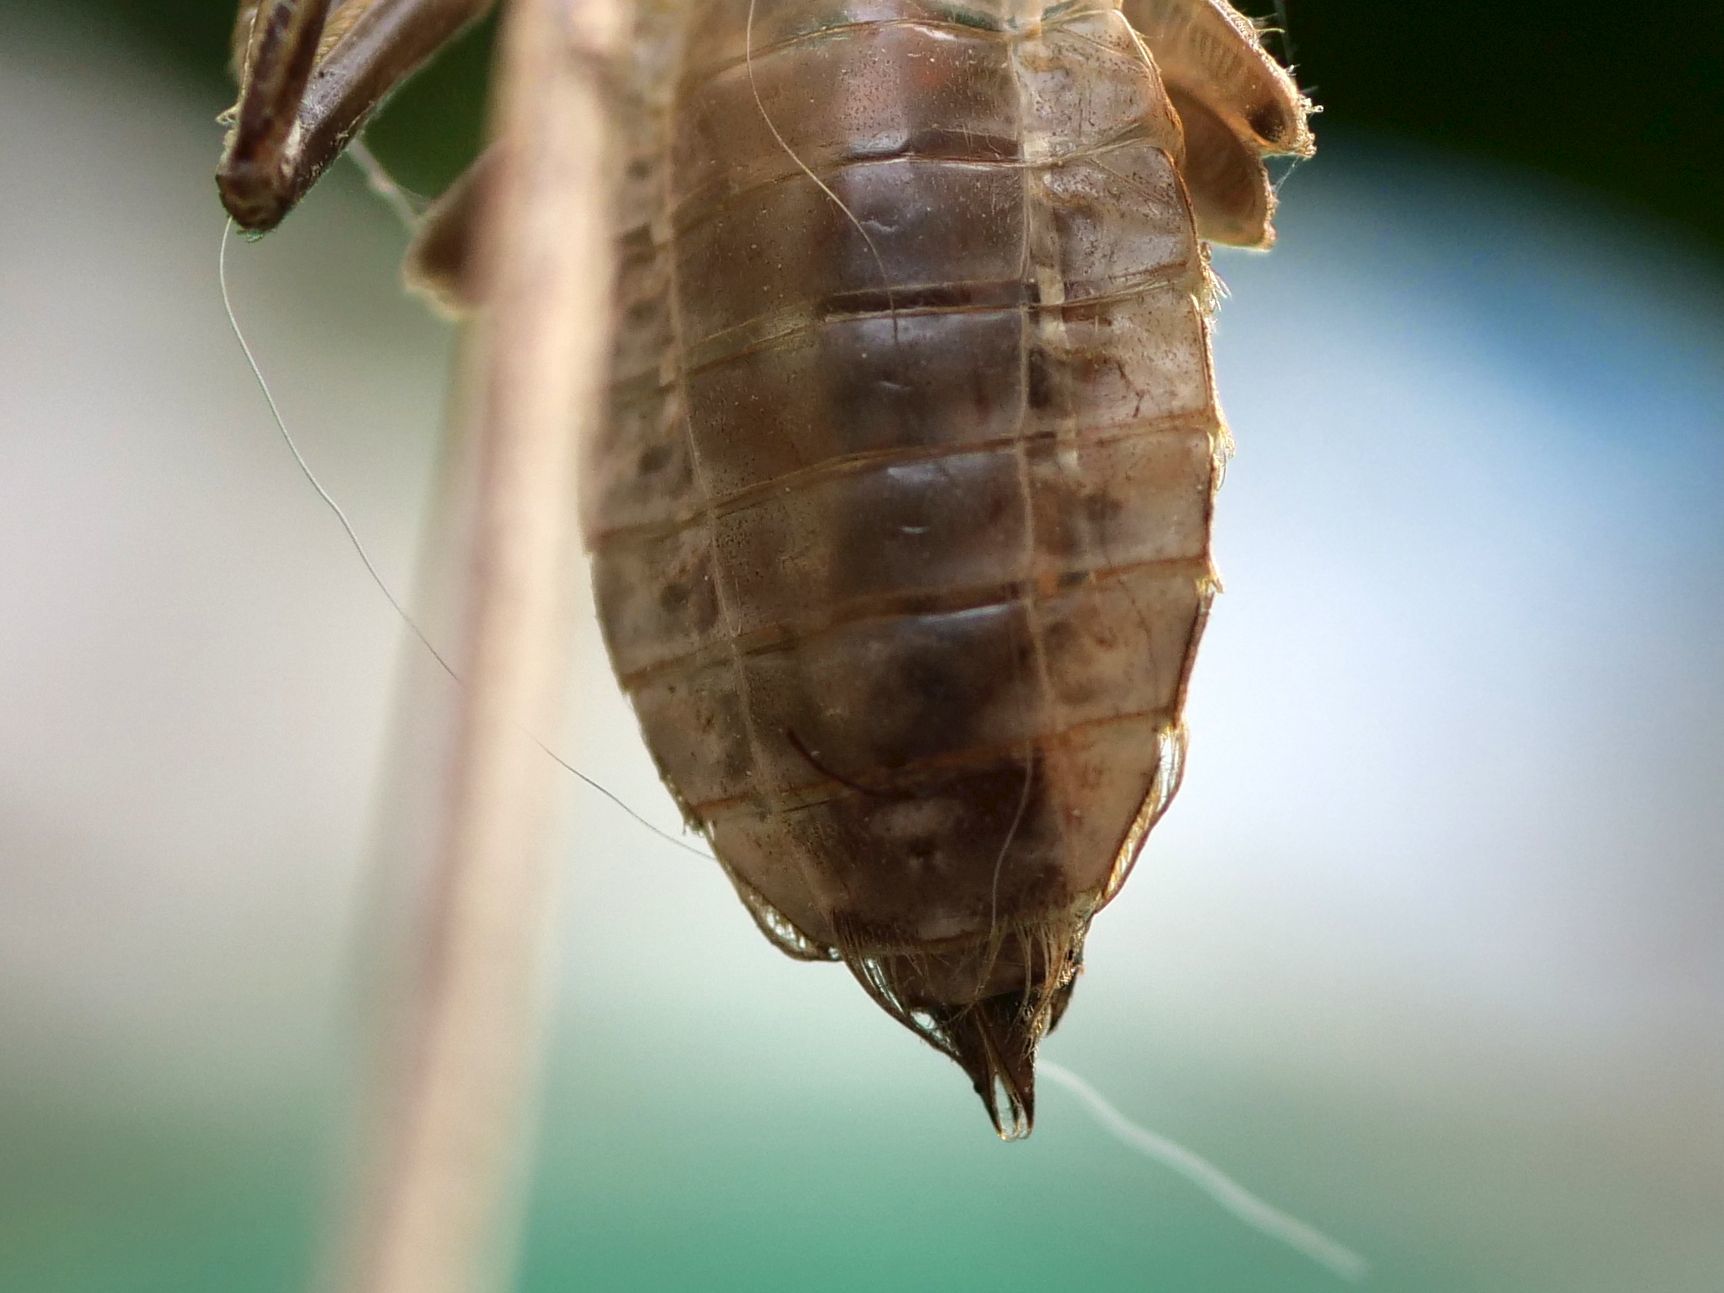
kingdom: Animalia
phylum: Arthropoda
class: Insecta
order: Odonata
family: Libellulidae
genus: Libellula
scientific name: Libellula depressa
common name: Broad-bodied chaser
